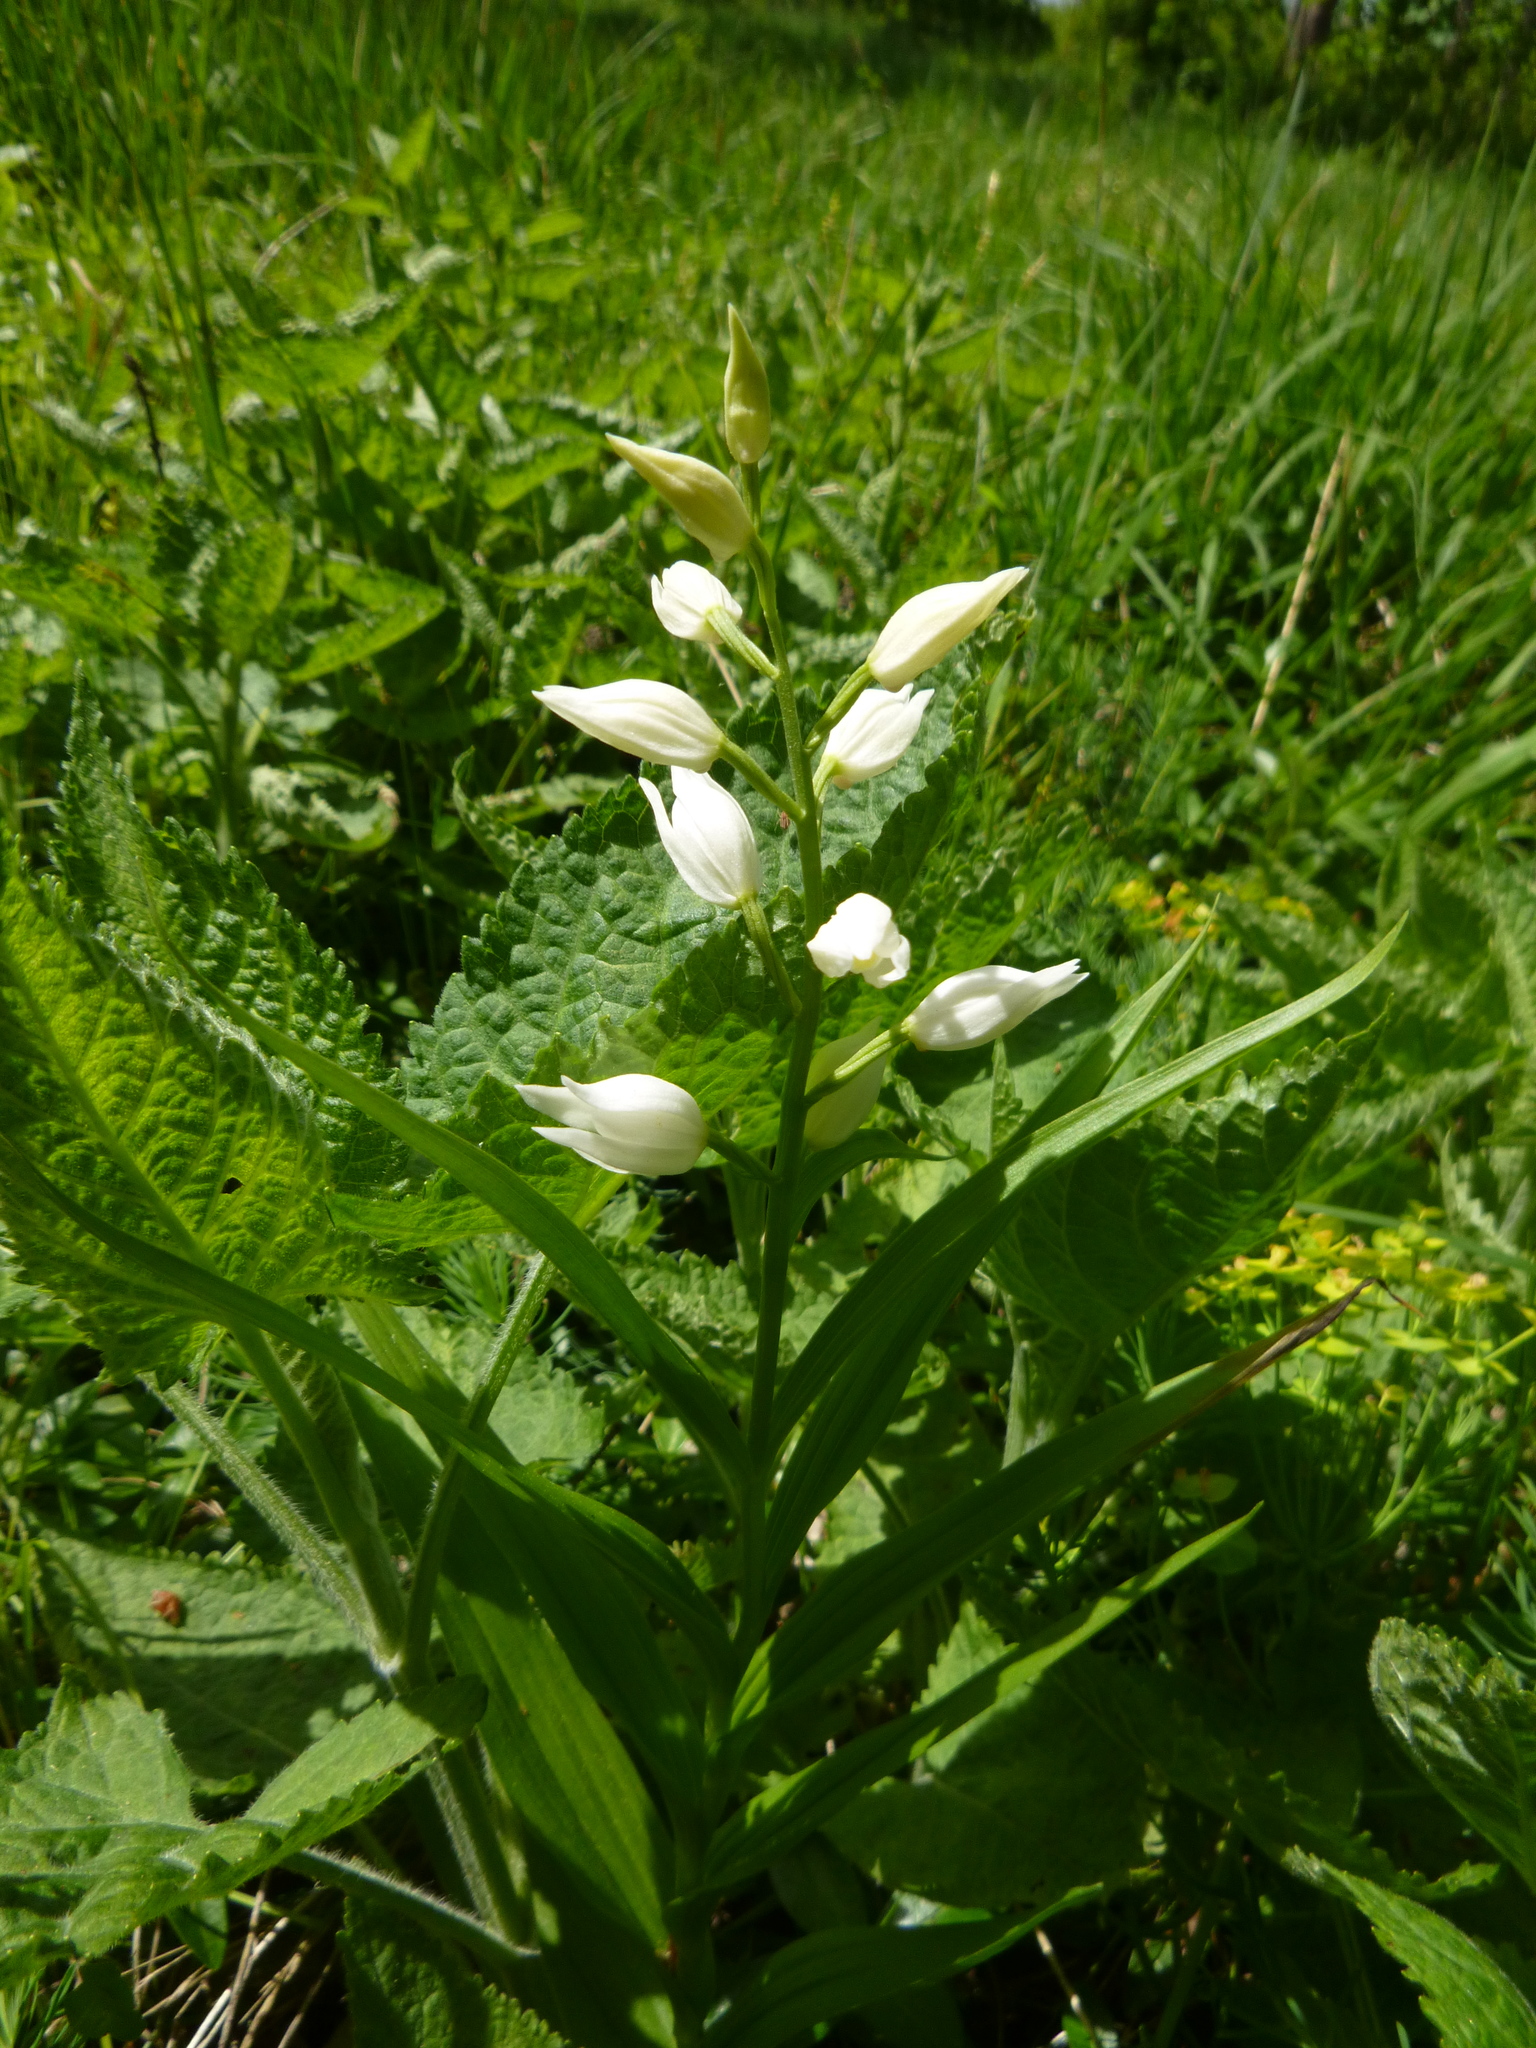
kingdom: Plantae
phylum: Tracheophyta
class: Liliopsida
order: Asparagales
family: Orchidaceae
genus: Cephalanthera
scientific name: Cephalanthera longifolia
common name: Narrow-leaved helleborine
